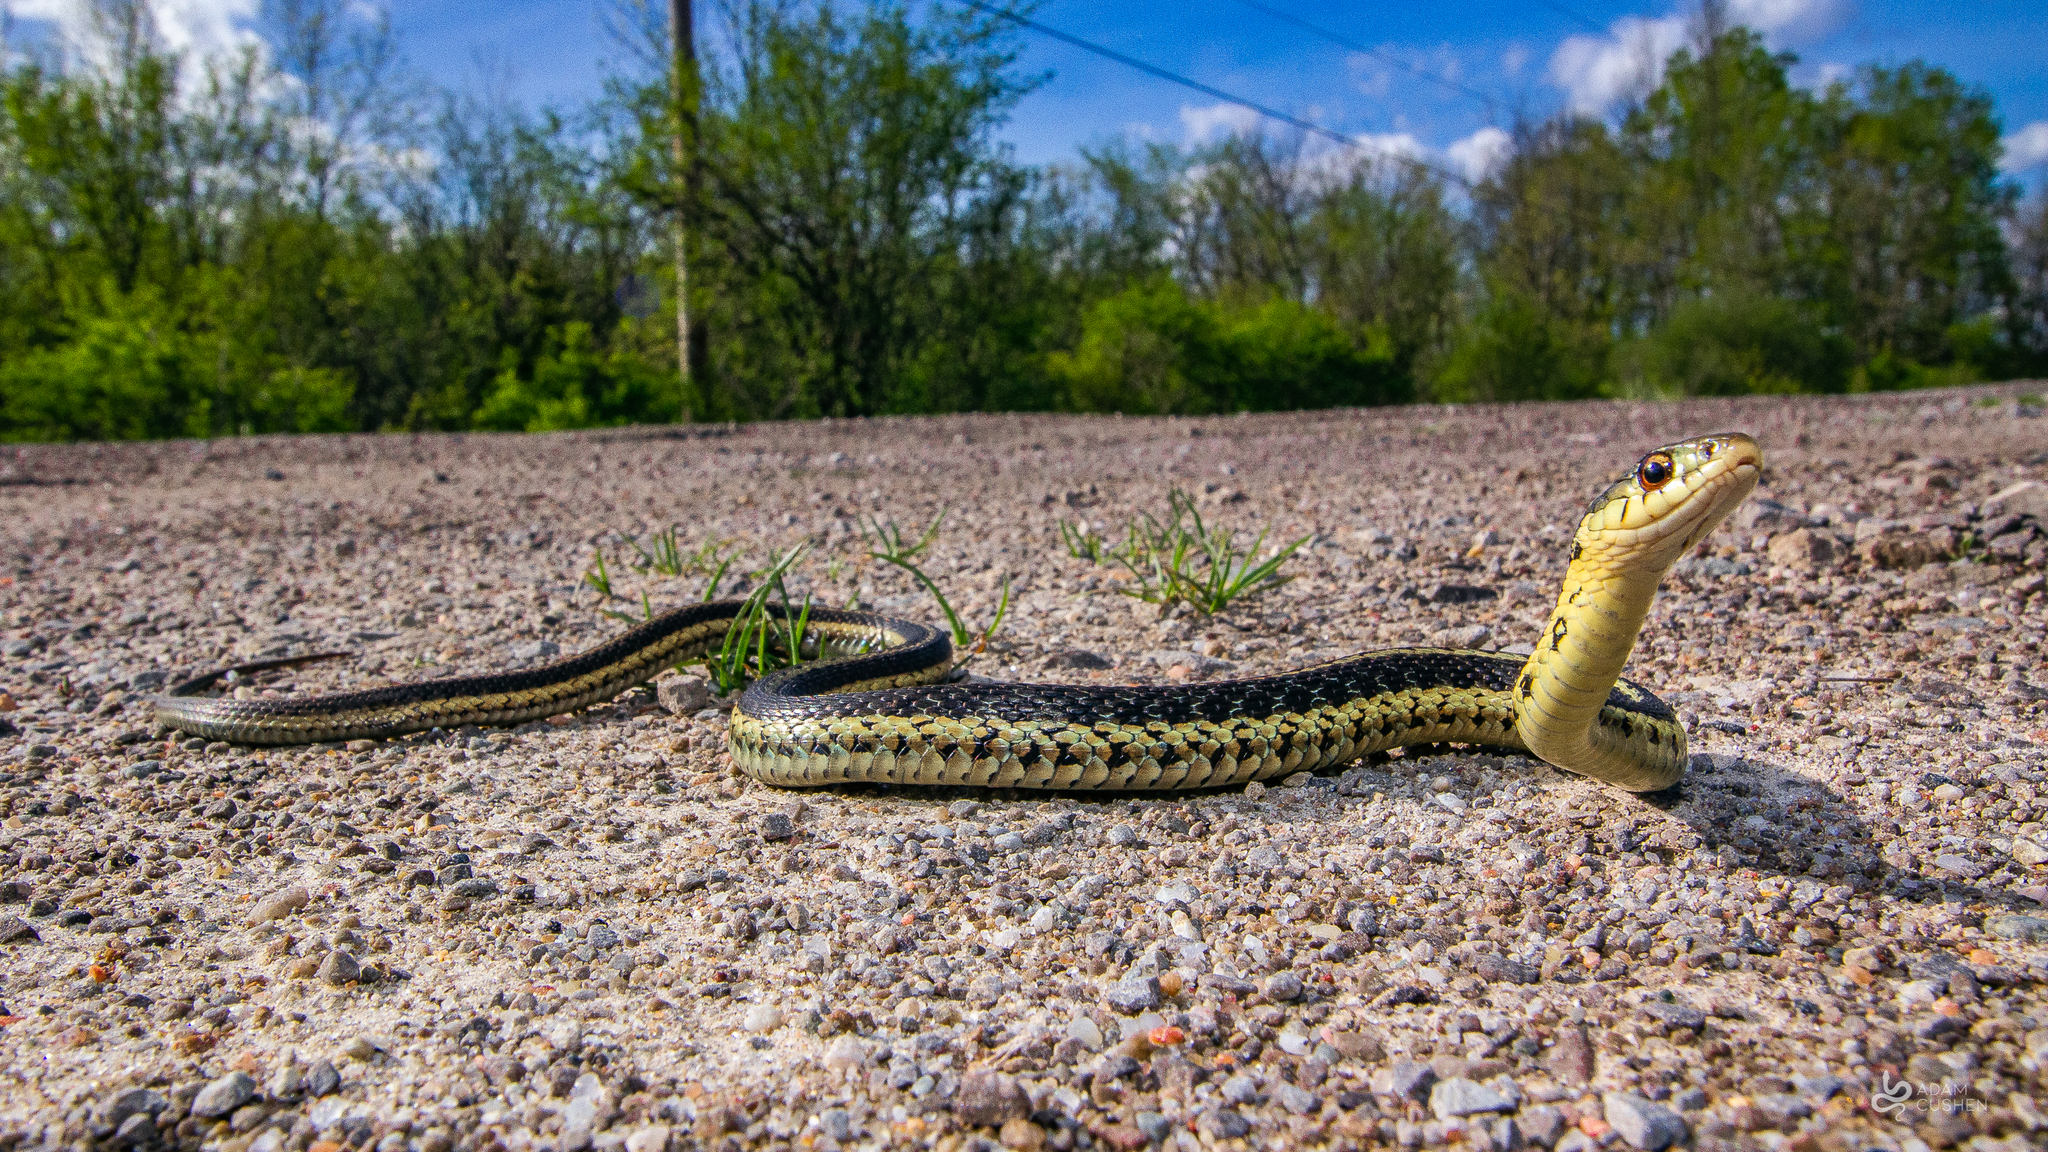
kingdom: Animalia
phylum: Chordata
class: Squamata
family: Colubridae
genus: Thamnophis
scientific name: Thamnophis sirtalis
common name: Common garter snake
